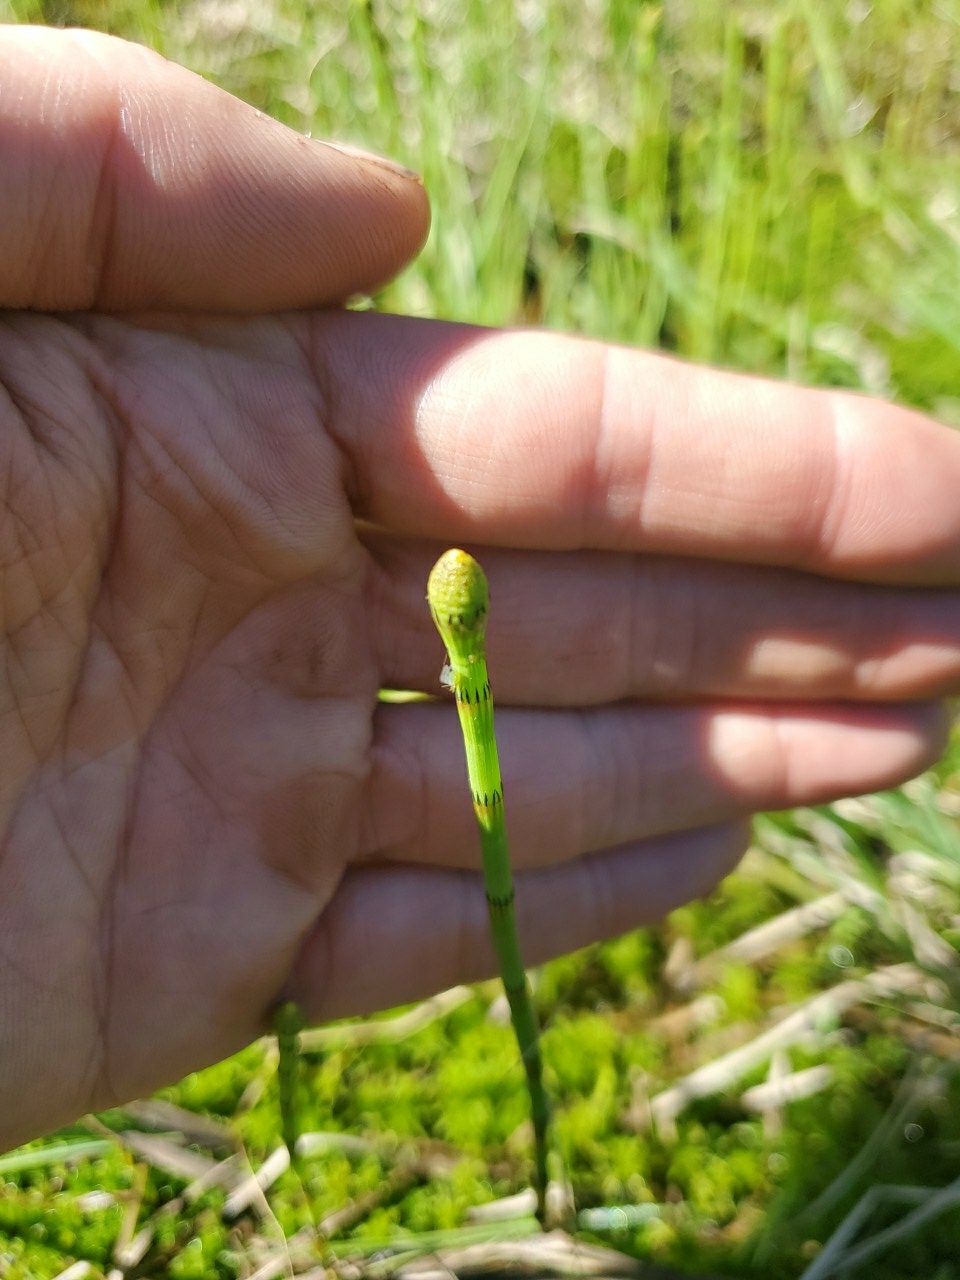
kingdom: Plantae
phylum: Tracheophyta
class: Polypodiopsida
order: Equisetales
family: Equisetaceae
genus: Equisetum
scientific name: Equisetum fluviatile
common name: Water horsetail
